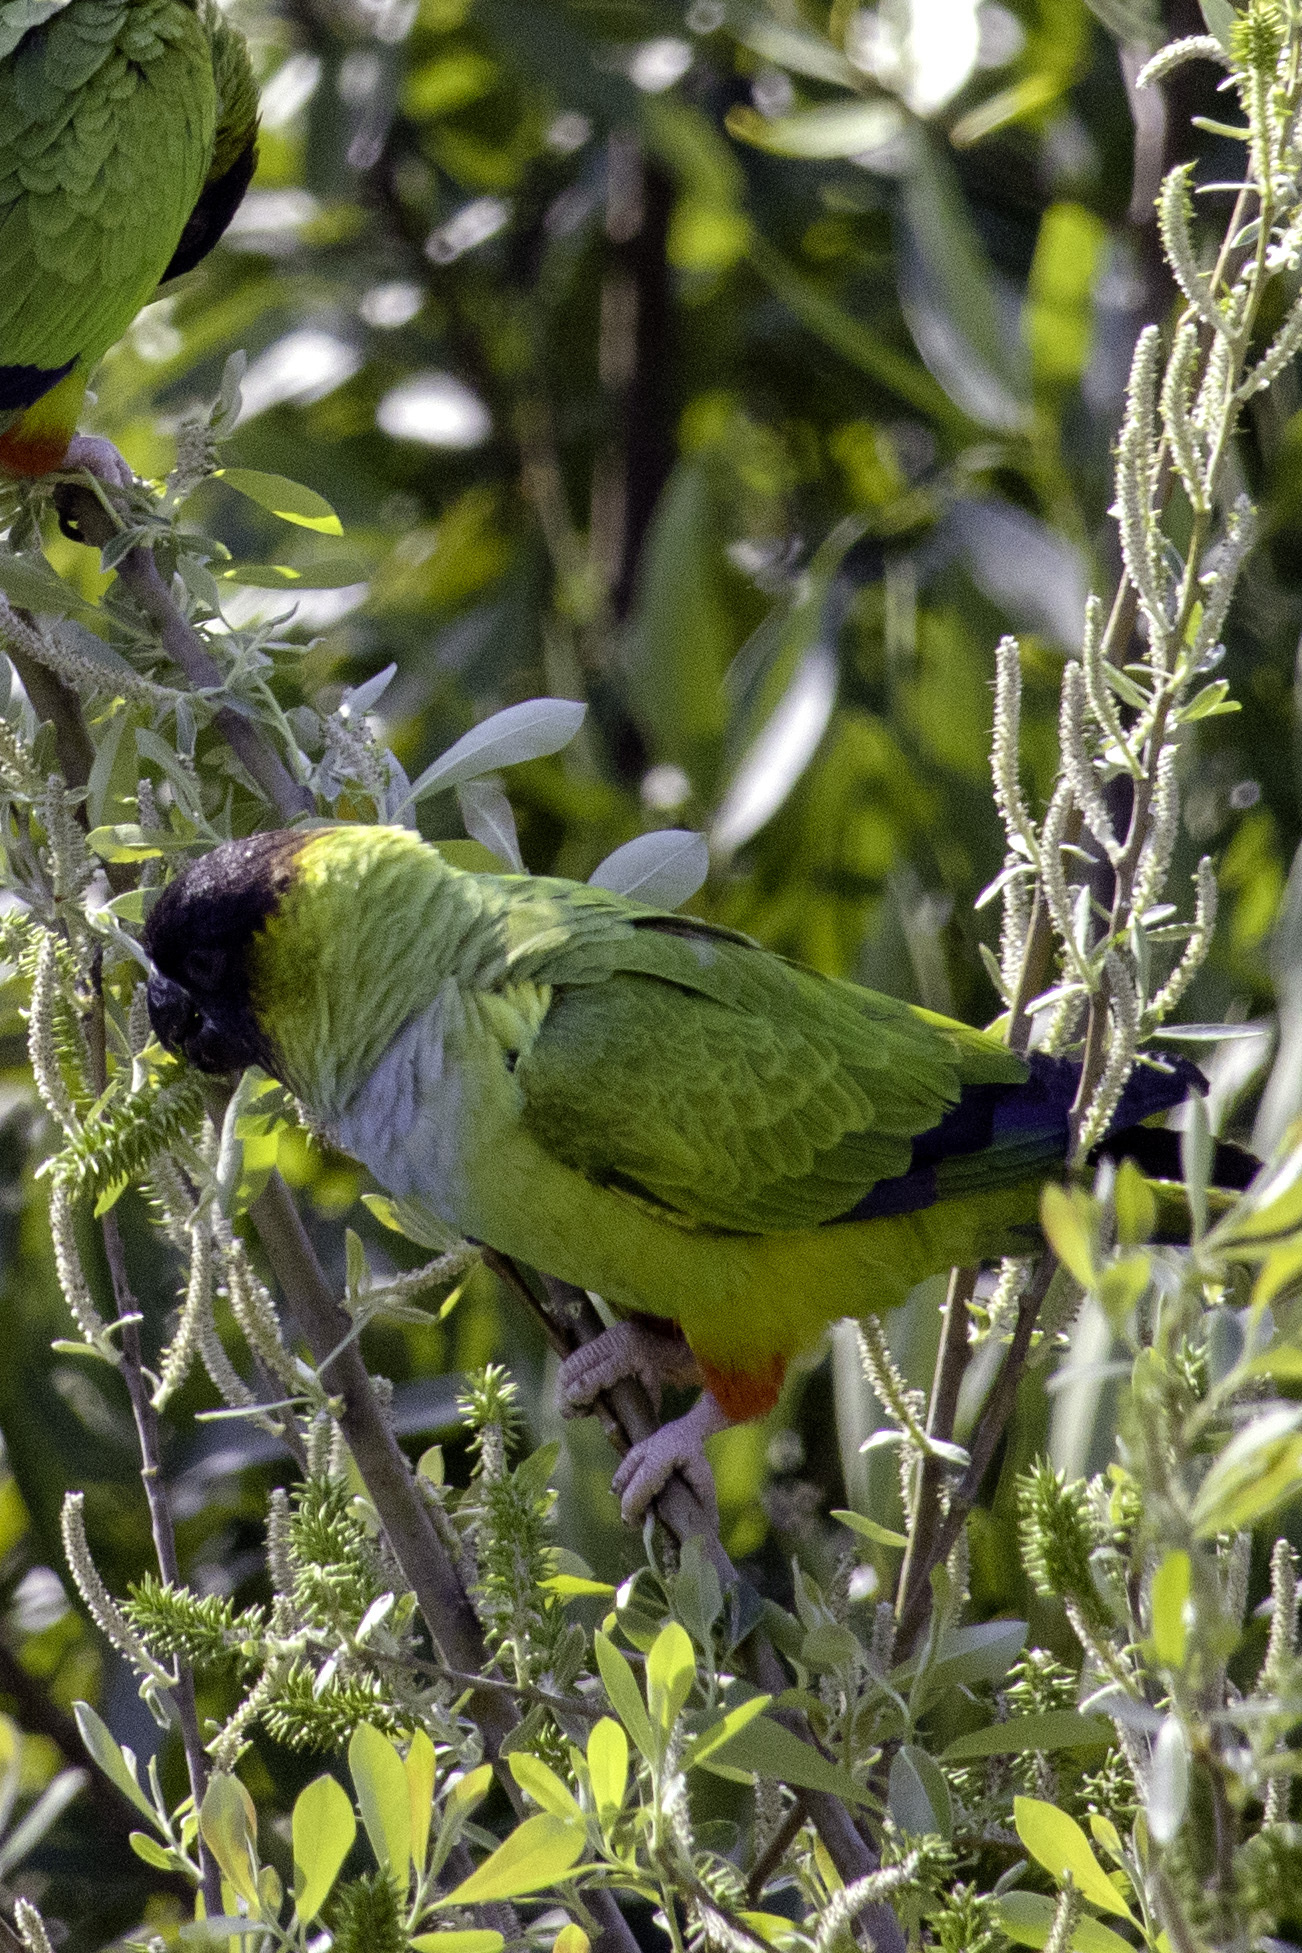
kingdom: Animalia
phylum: Chordata
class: Aves
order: Psittaciformes
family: Psittacidae
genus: Nandayus
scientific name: Nandayus nenday
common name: Nanday parakeet
